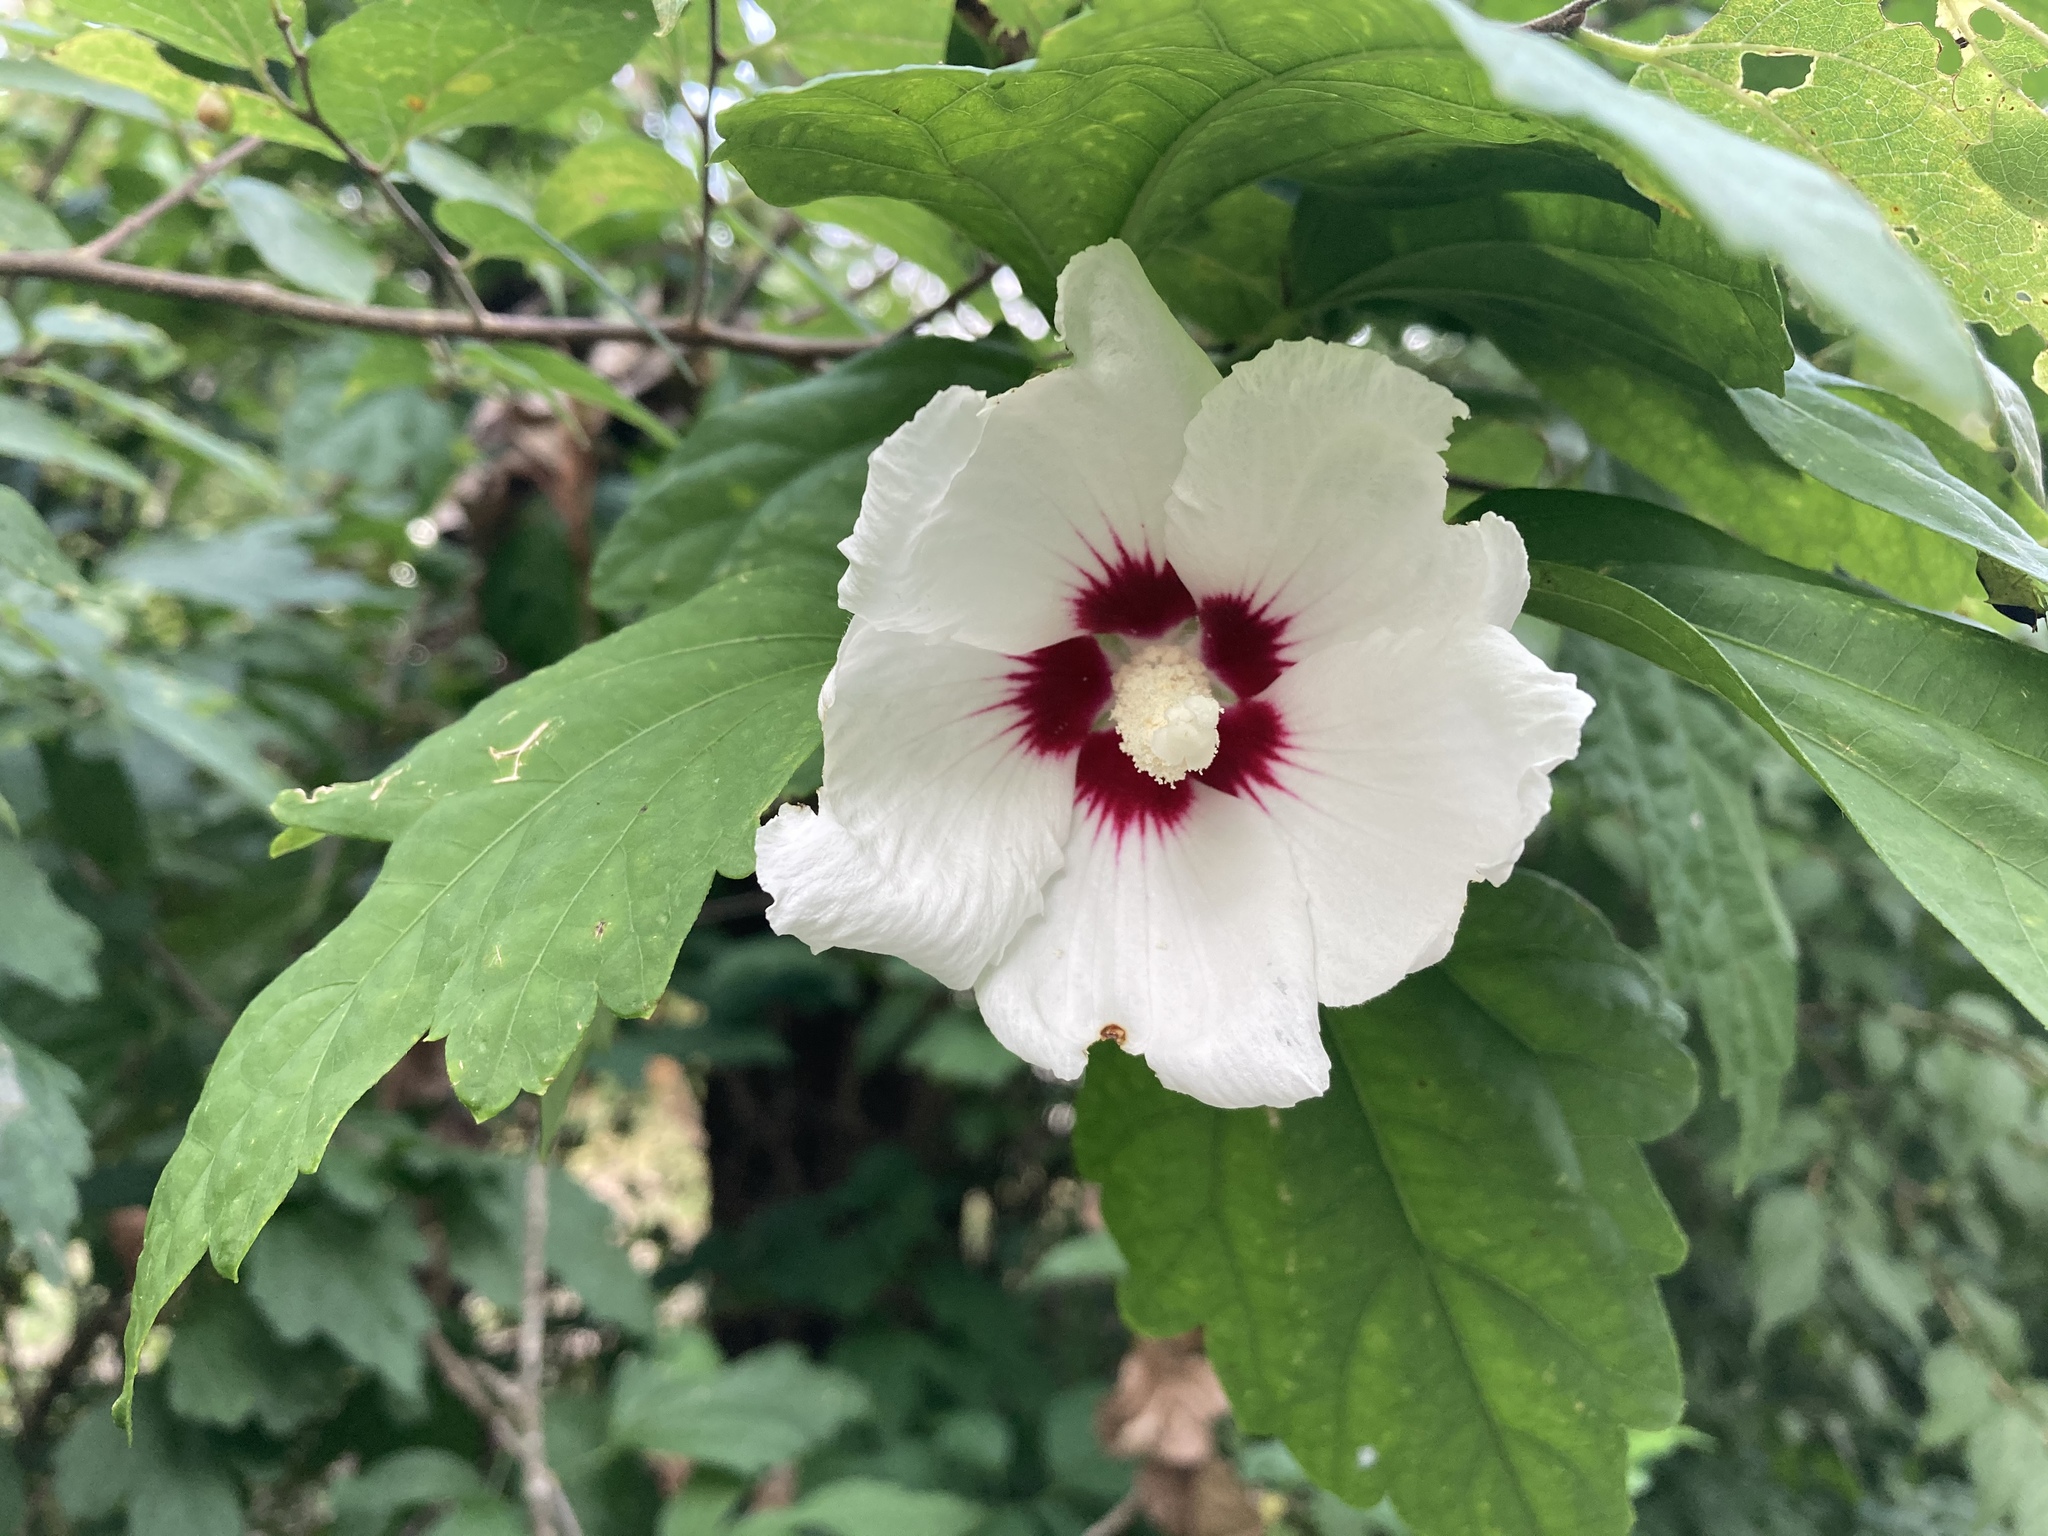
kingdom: Plantae
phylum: Tracheophyta
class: Magnoliopsida
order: Malvales
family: Malvaceae
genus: Hibiscus
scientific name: Hibiscus syriacus
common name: Syrian ketmia
